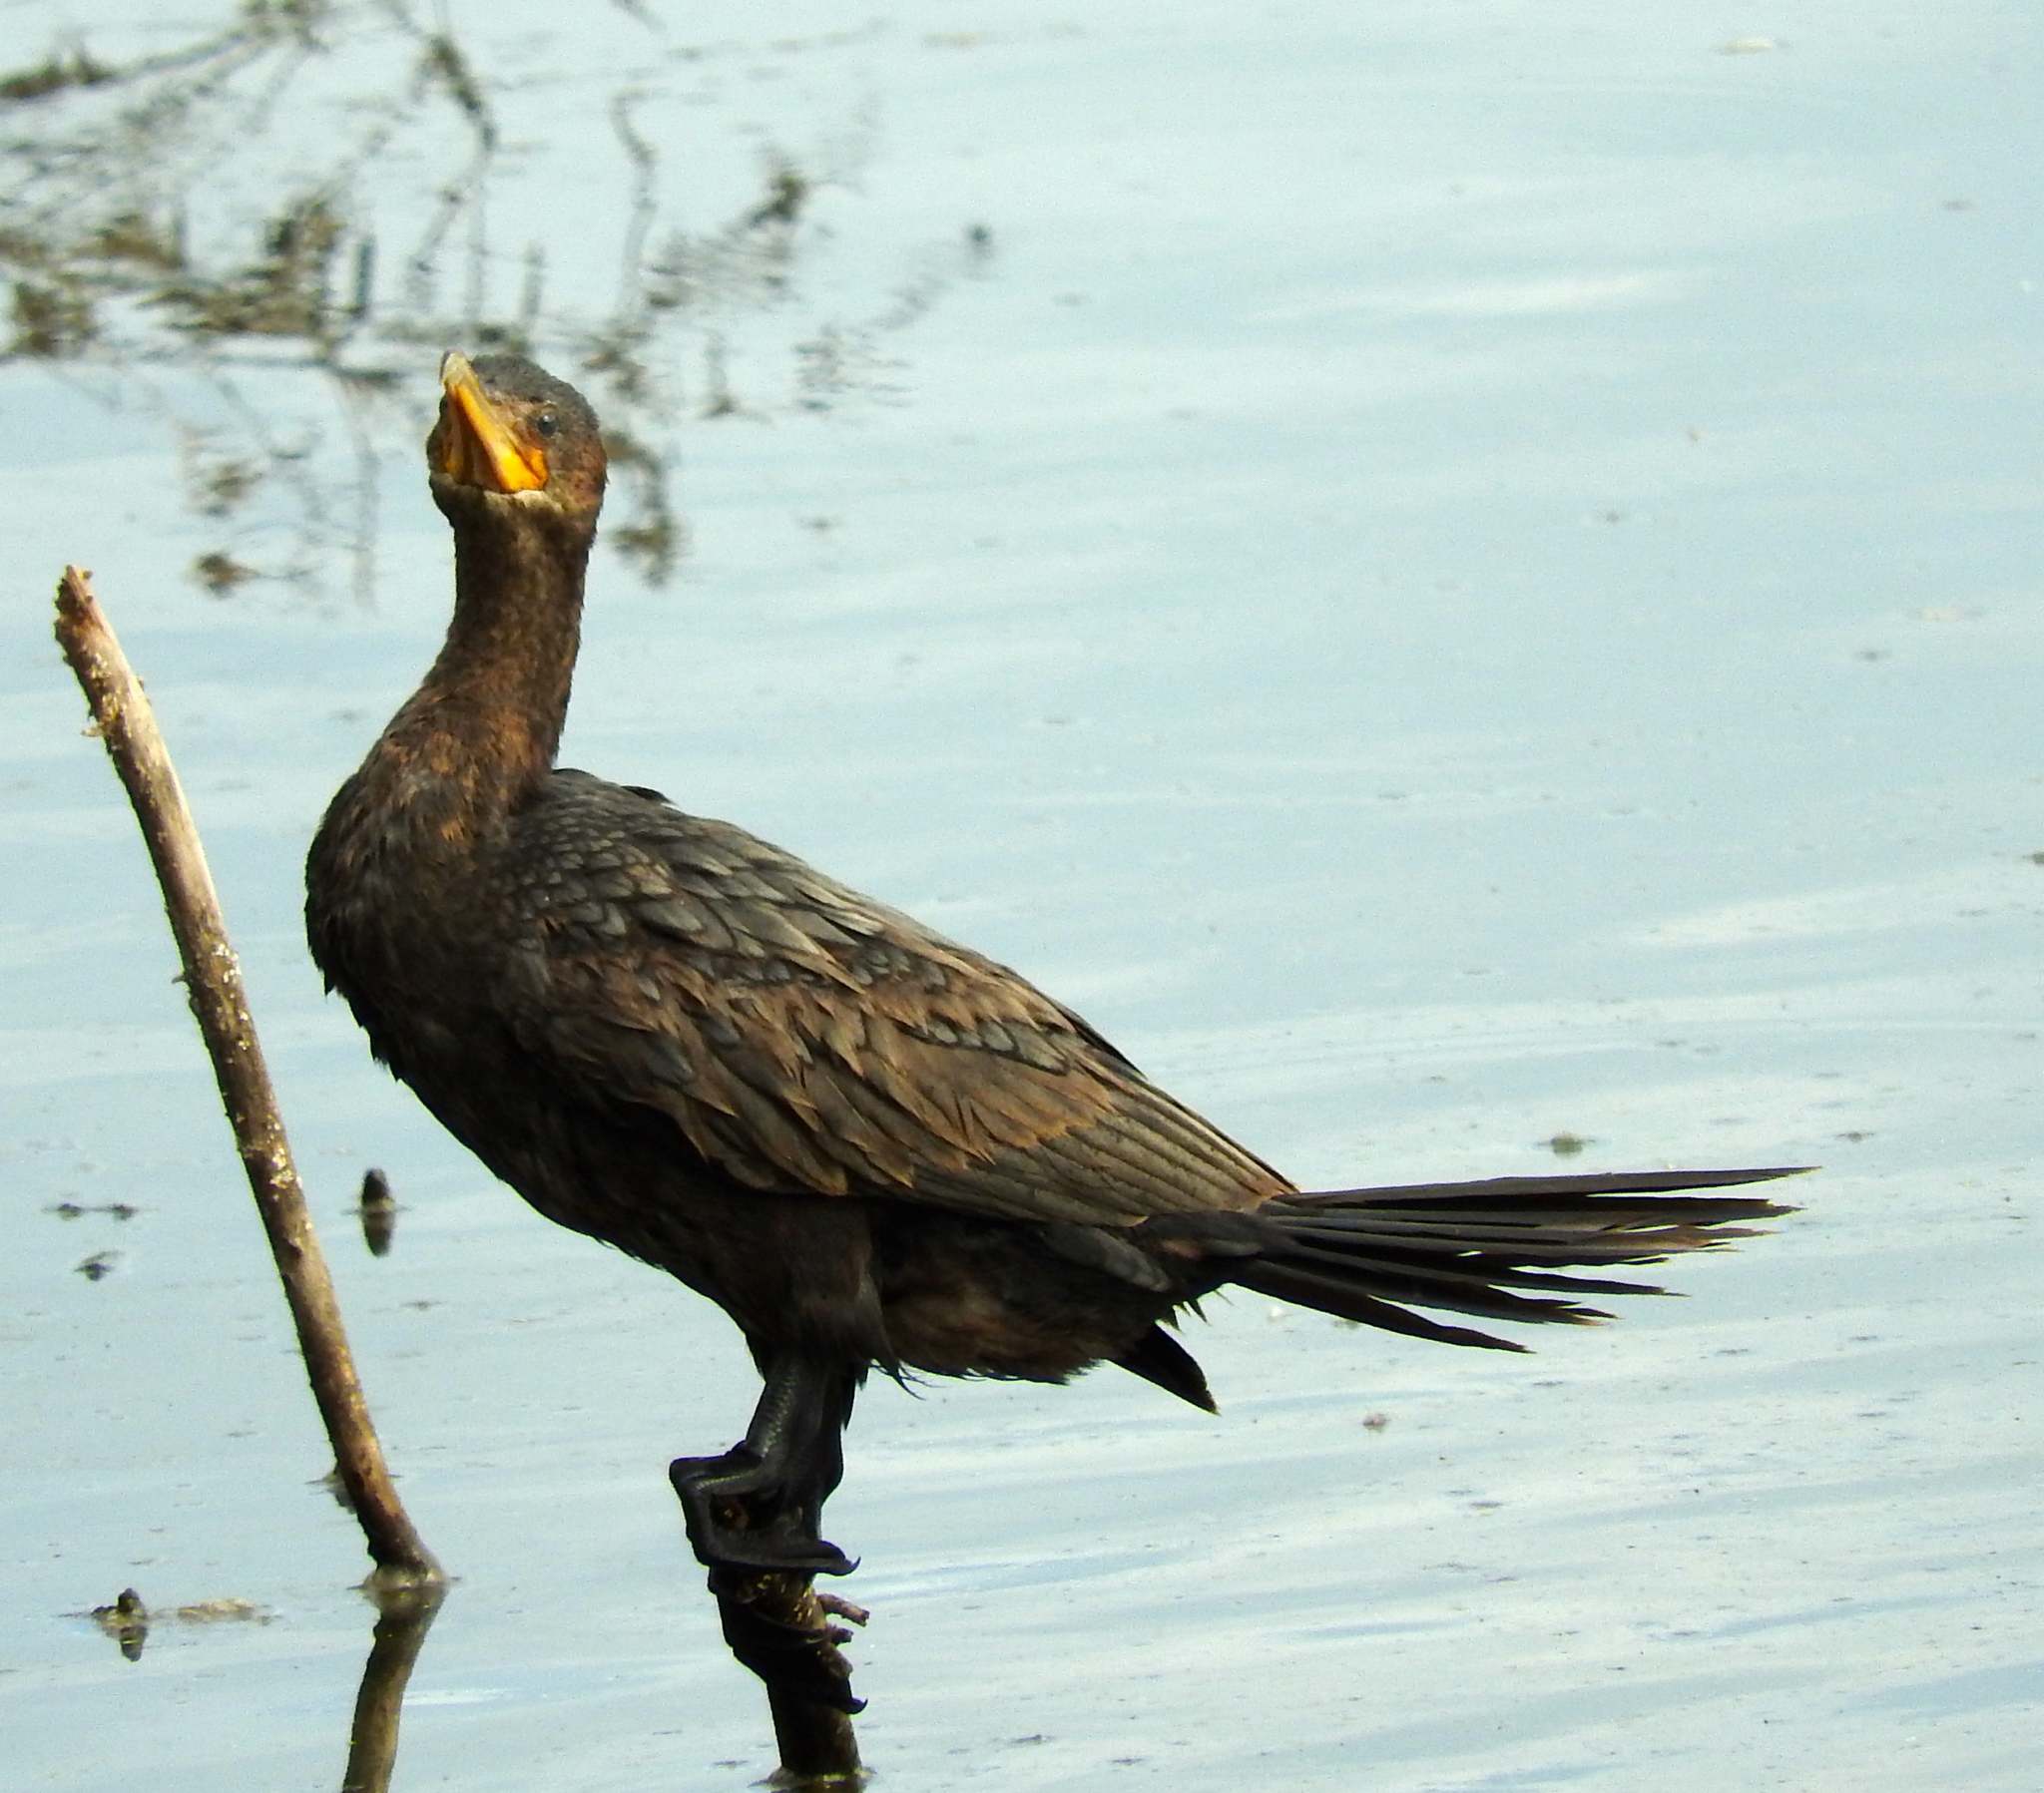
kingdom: Animalia
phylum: Chordata
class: Aves
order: Suliformes
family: Phalacrocoracidae
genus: Phalacrocorax
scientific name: Phalacrocorax brasilianus
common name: Neotropic cormorant
